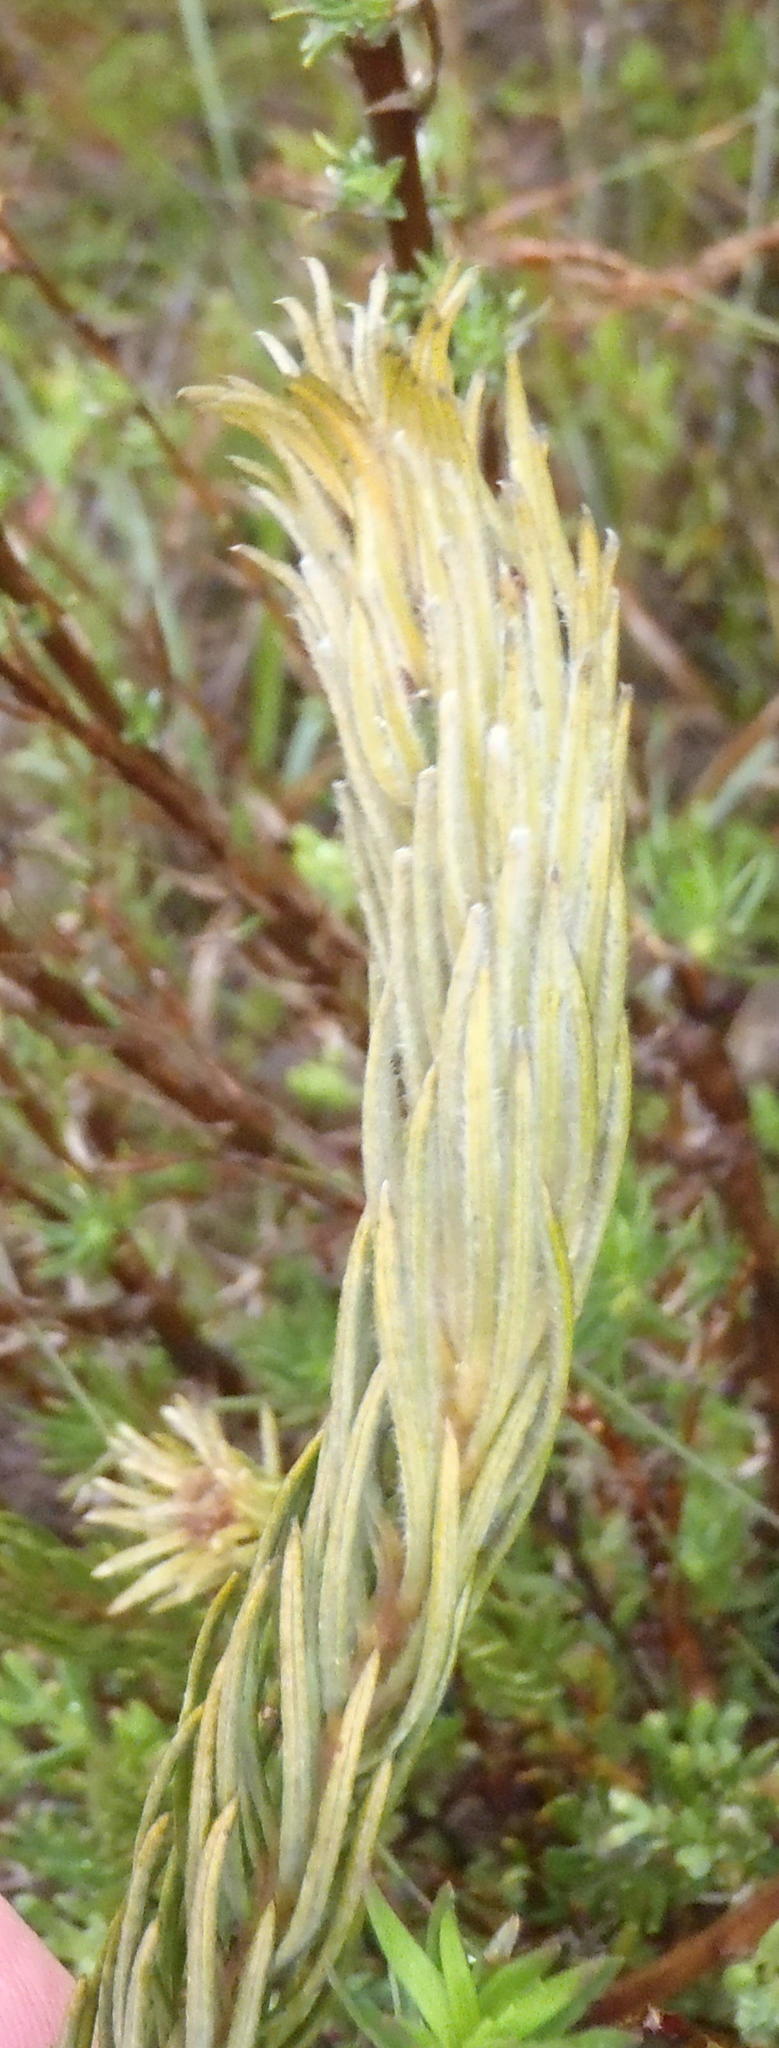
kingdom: Plantae
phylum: Tracheophyta
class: Magnoliopsida
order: Rosales
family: Rhamnaceae
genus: Phylica
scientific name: Phylica velutina
